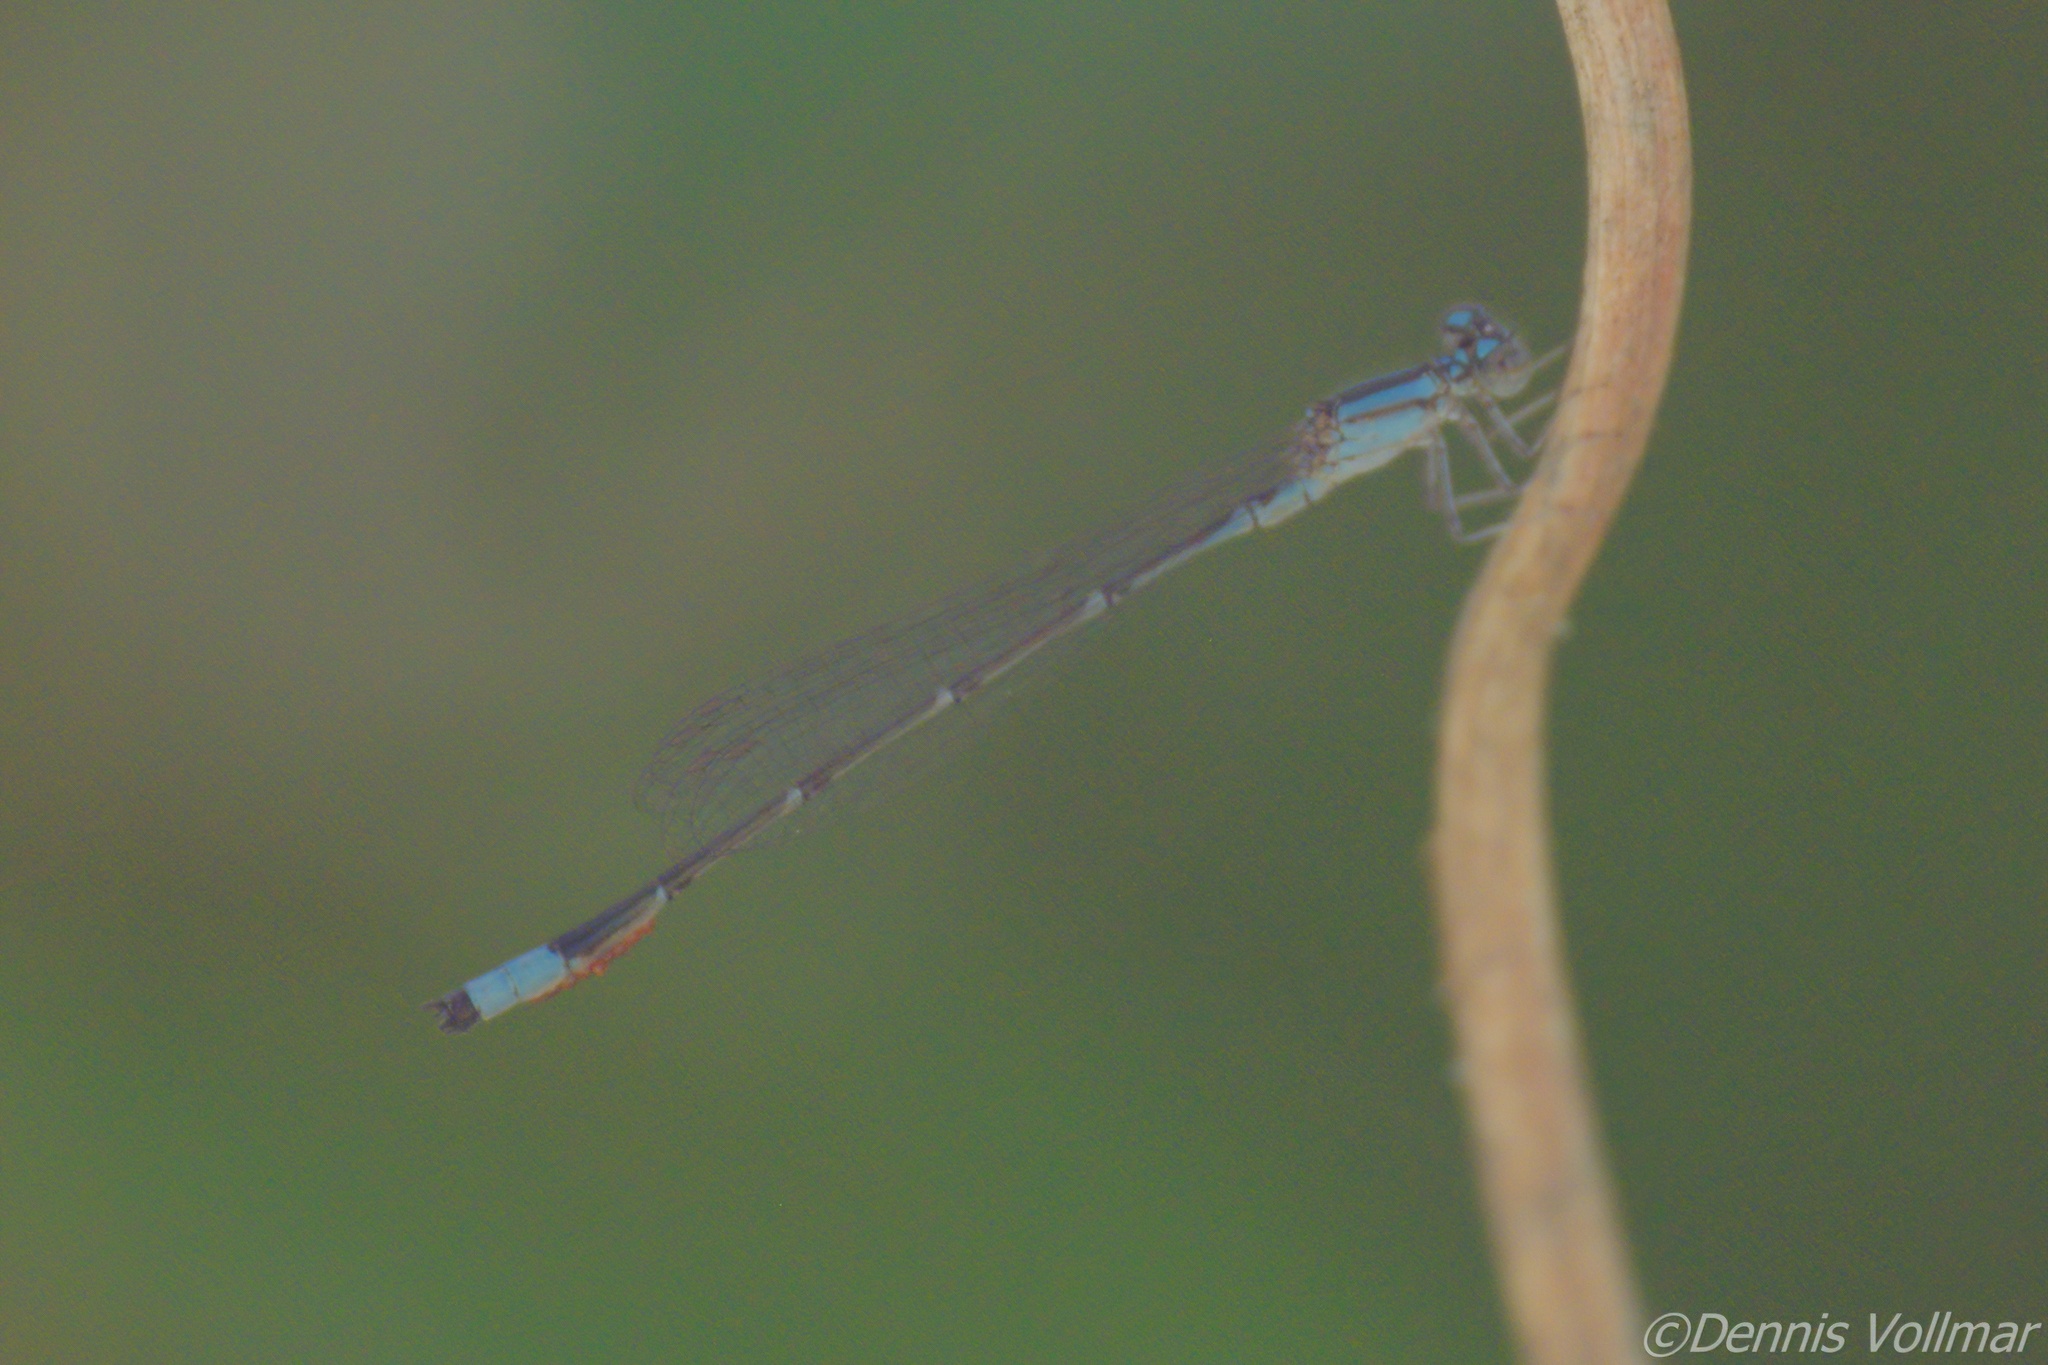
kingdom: Animalia
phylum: Arthropoda
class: Insecta
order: Odonata
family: Coenagrionidae
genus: Enallagma
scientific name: Enallagma traviatum
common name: Slender bluet
